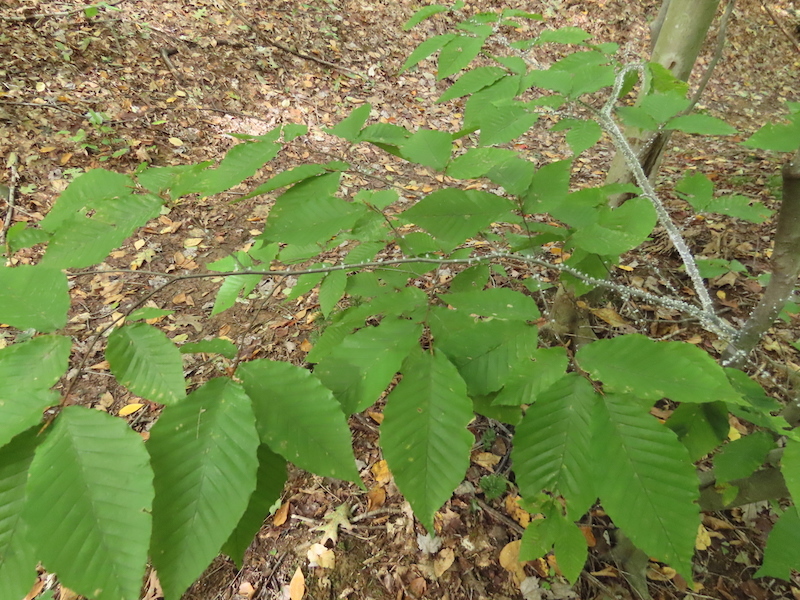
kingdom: Animalia
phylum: Arthropoda
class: Insecta
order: Hemiptera
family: Aphididae
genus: Grylloprociphilus
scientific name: Grylloprociphilus imbricator
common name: Beech blight aphid
